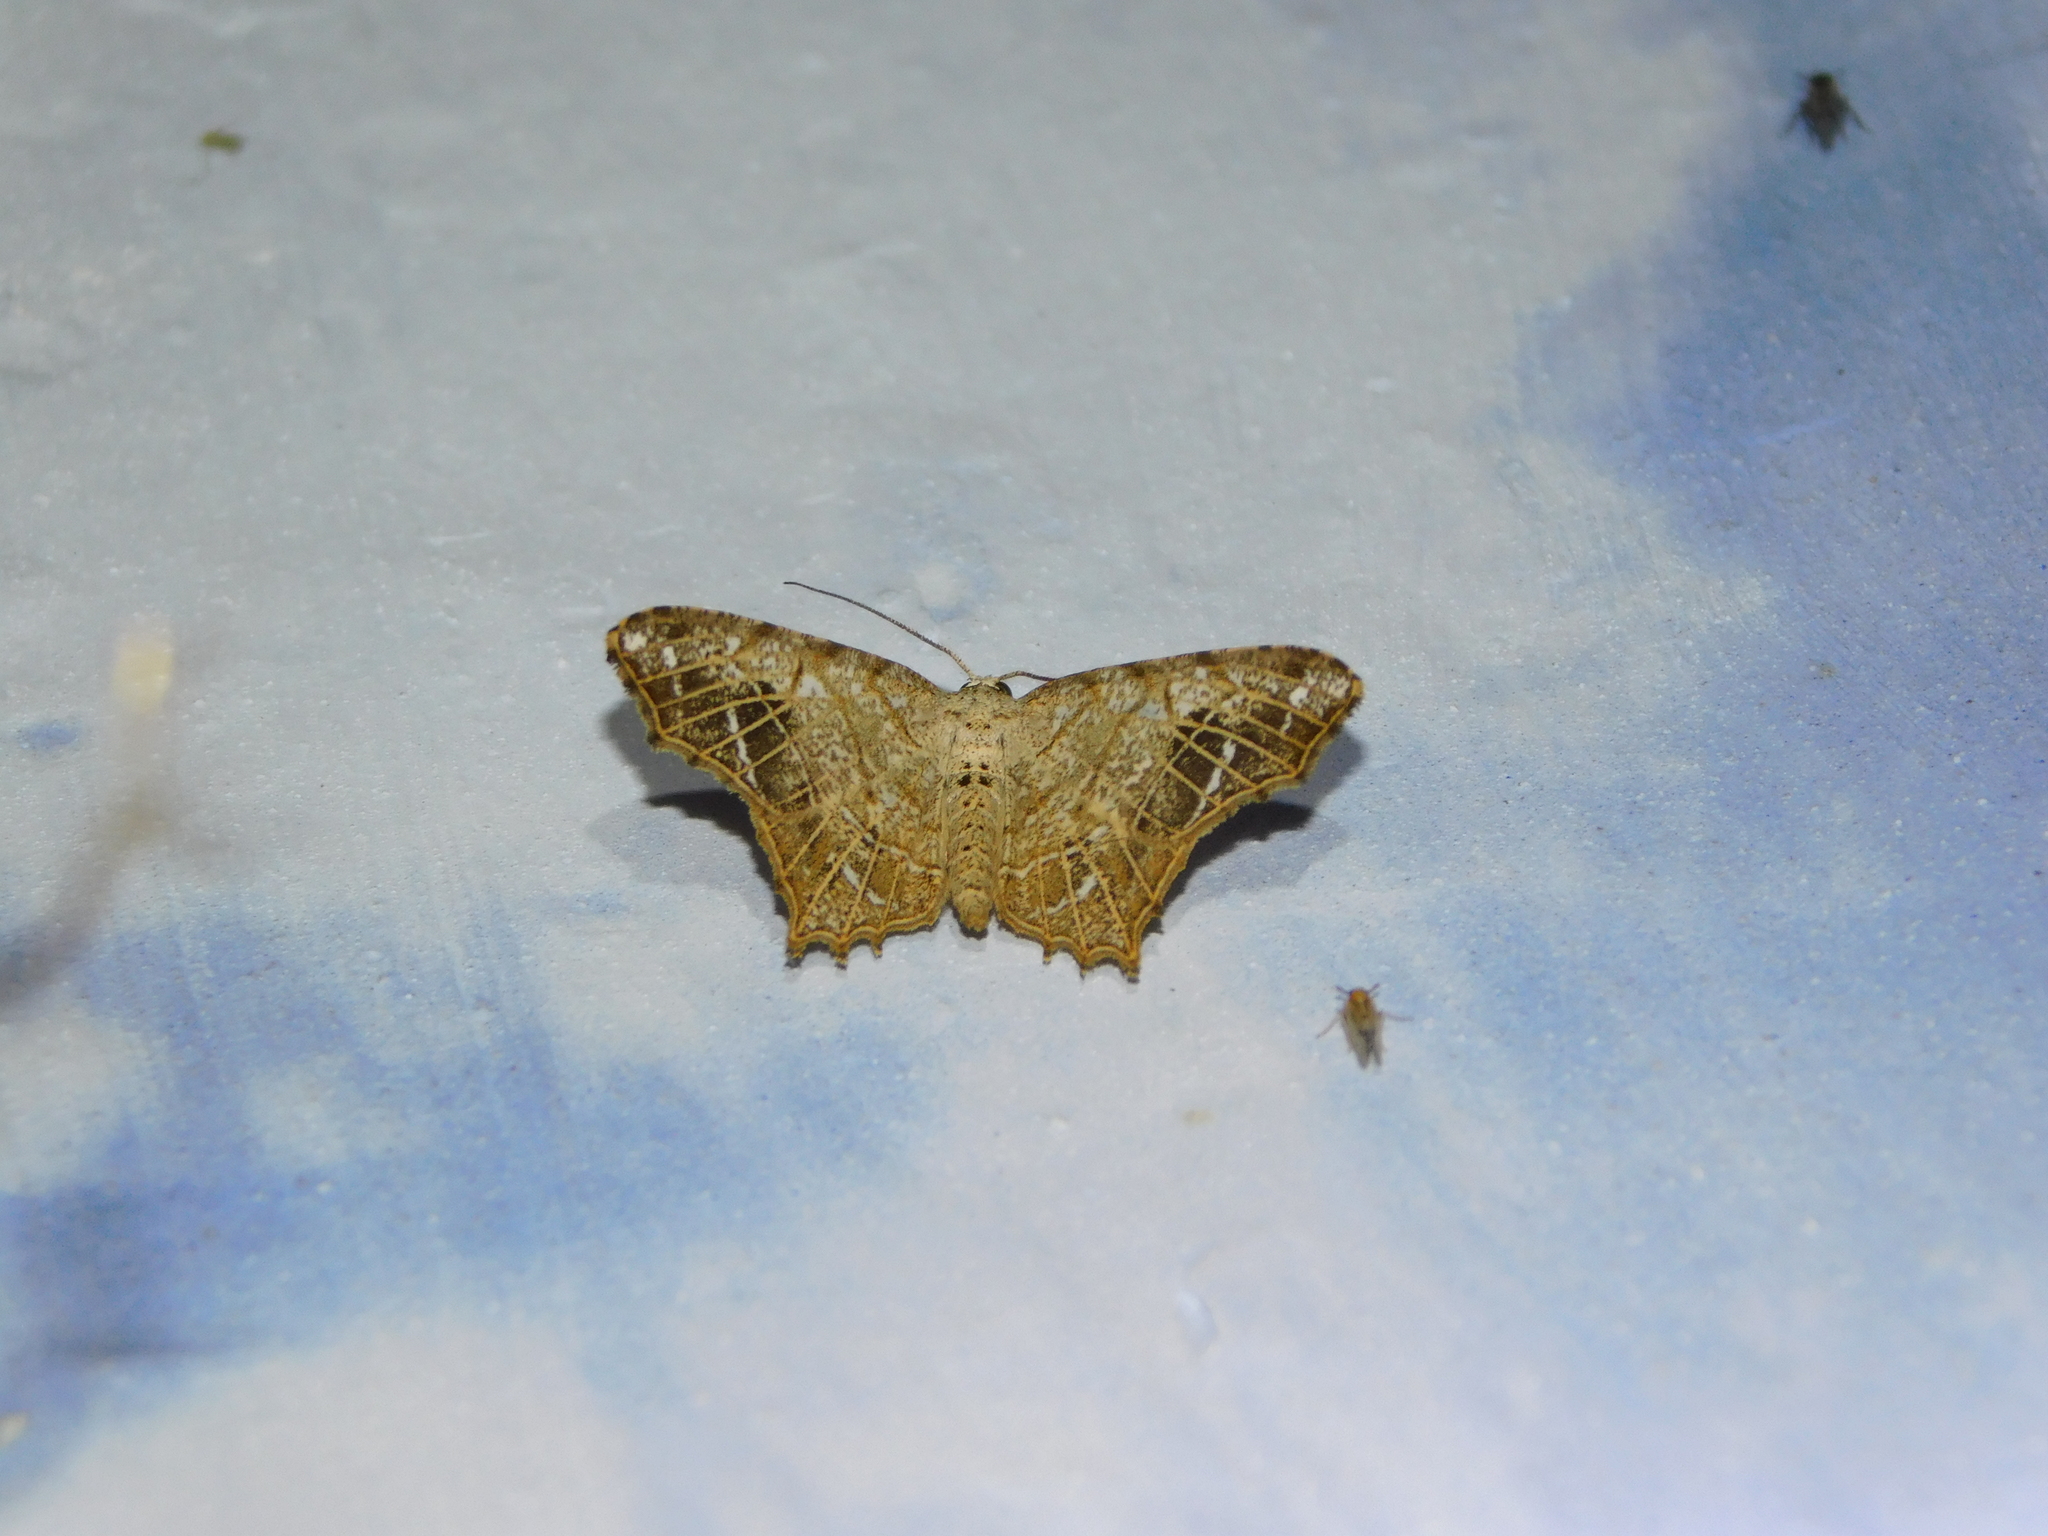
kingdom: Animalia
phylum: Arthropoda
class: Insecta
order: Lepidoptera
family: Geometridae
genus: Chiasmia
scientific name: Chiasmia emersaria
